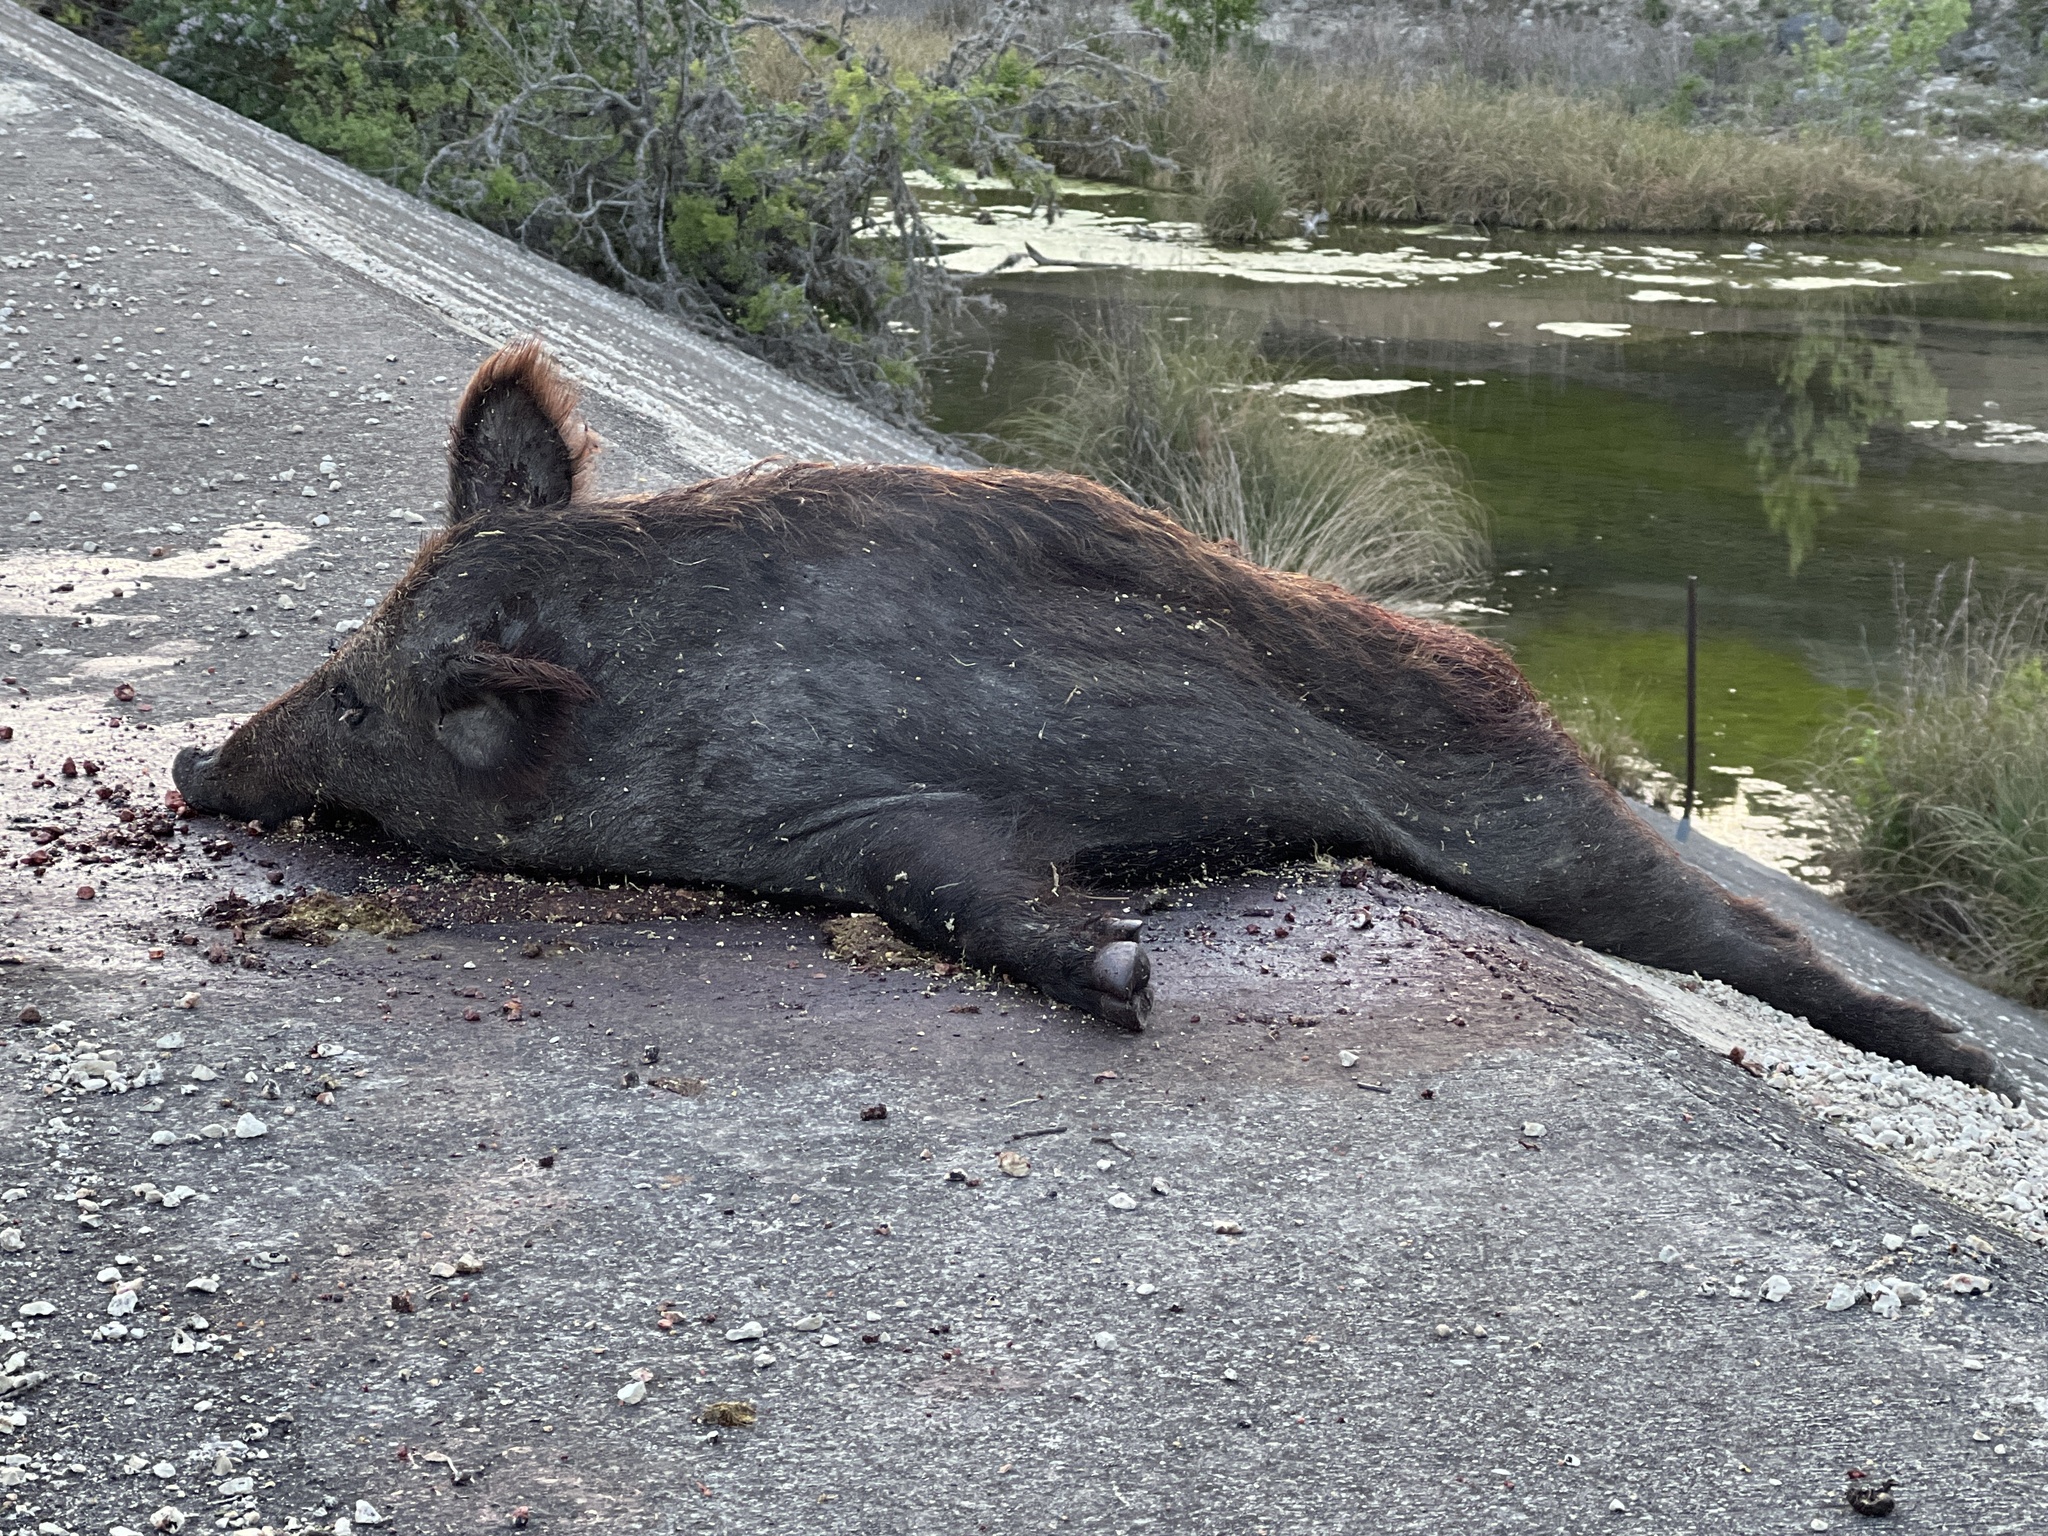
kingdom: Animalia
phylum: Chordata
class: Mammalia
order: Artiodactyla
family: Suidae
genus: Sus
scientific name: Sus scrofa
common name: Wild boar
